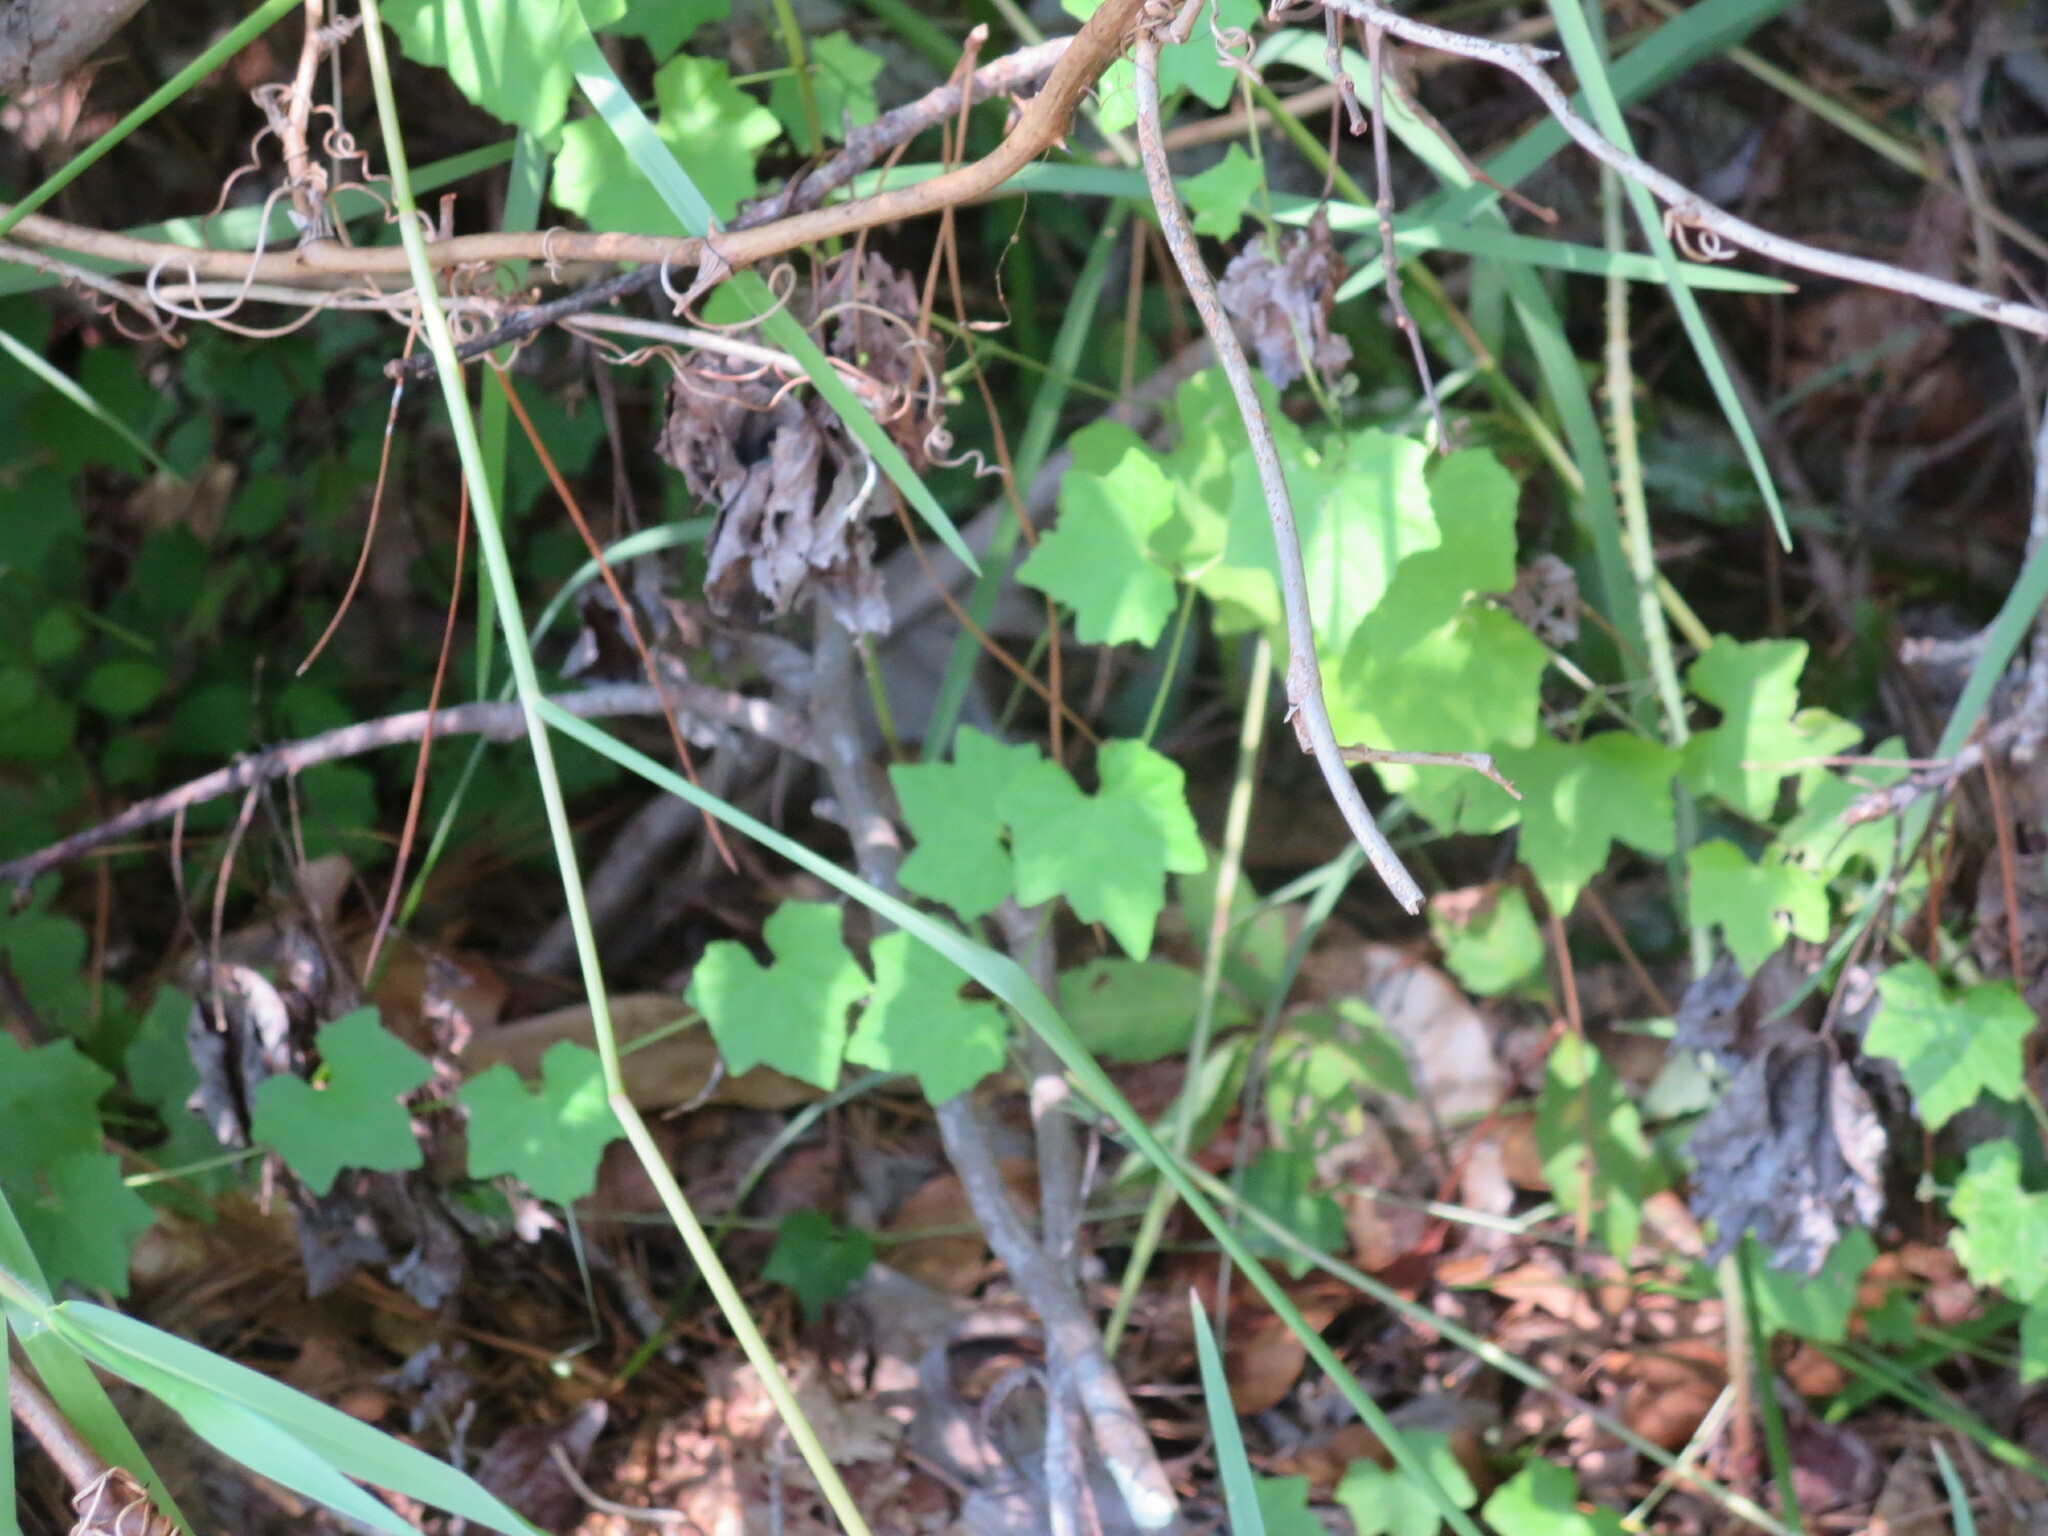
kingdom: Plantae
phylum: Tracheophyta
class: Magnoliopsida
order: Cucurbitales
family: Cucurbitaceae
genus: Melothria
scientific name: Melothria pendula
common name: Creeping-cucumber
